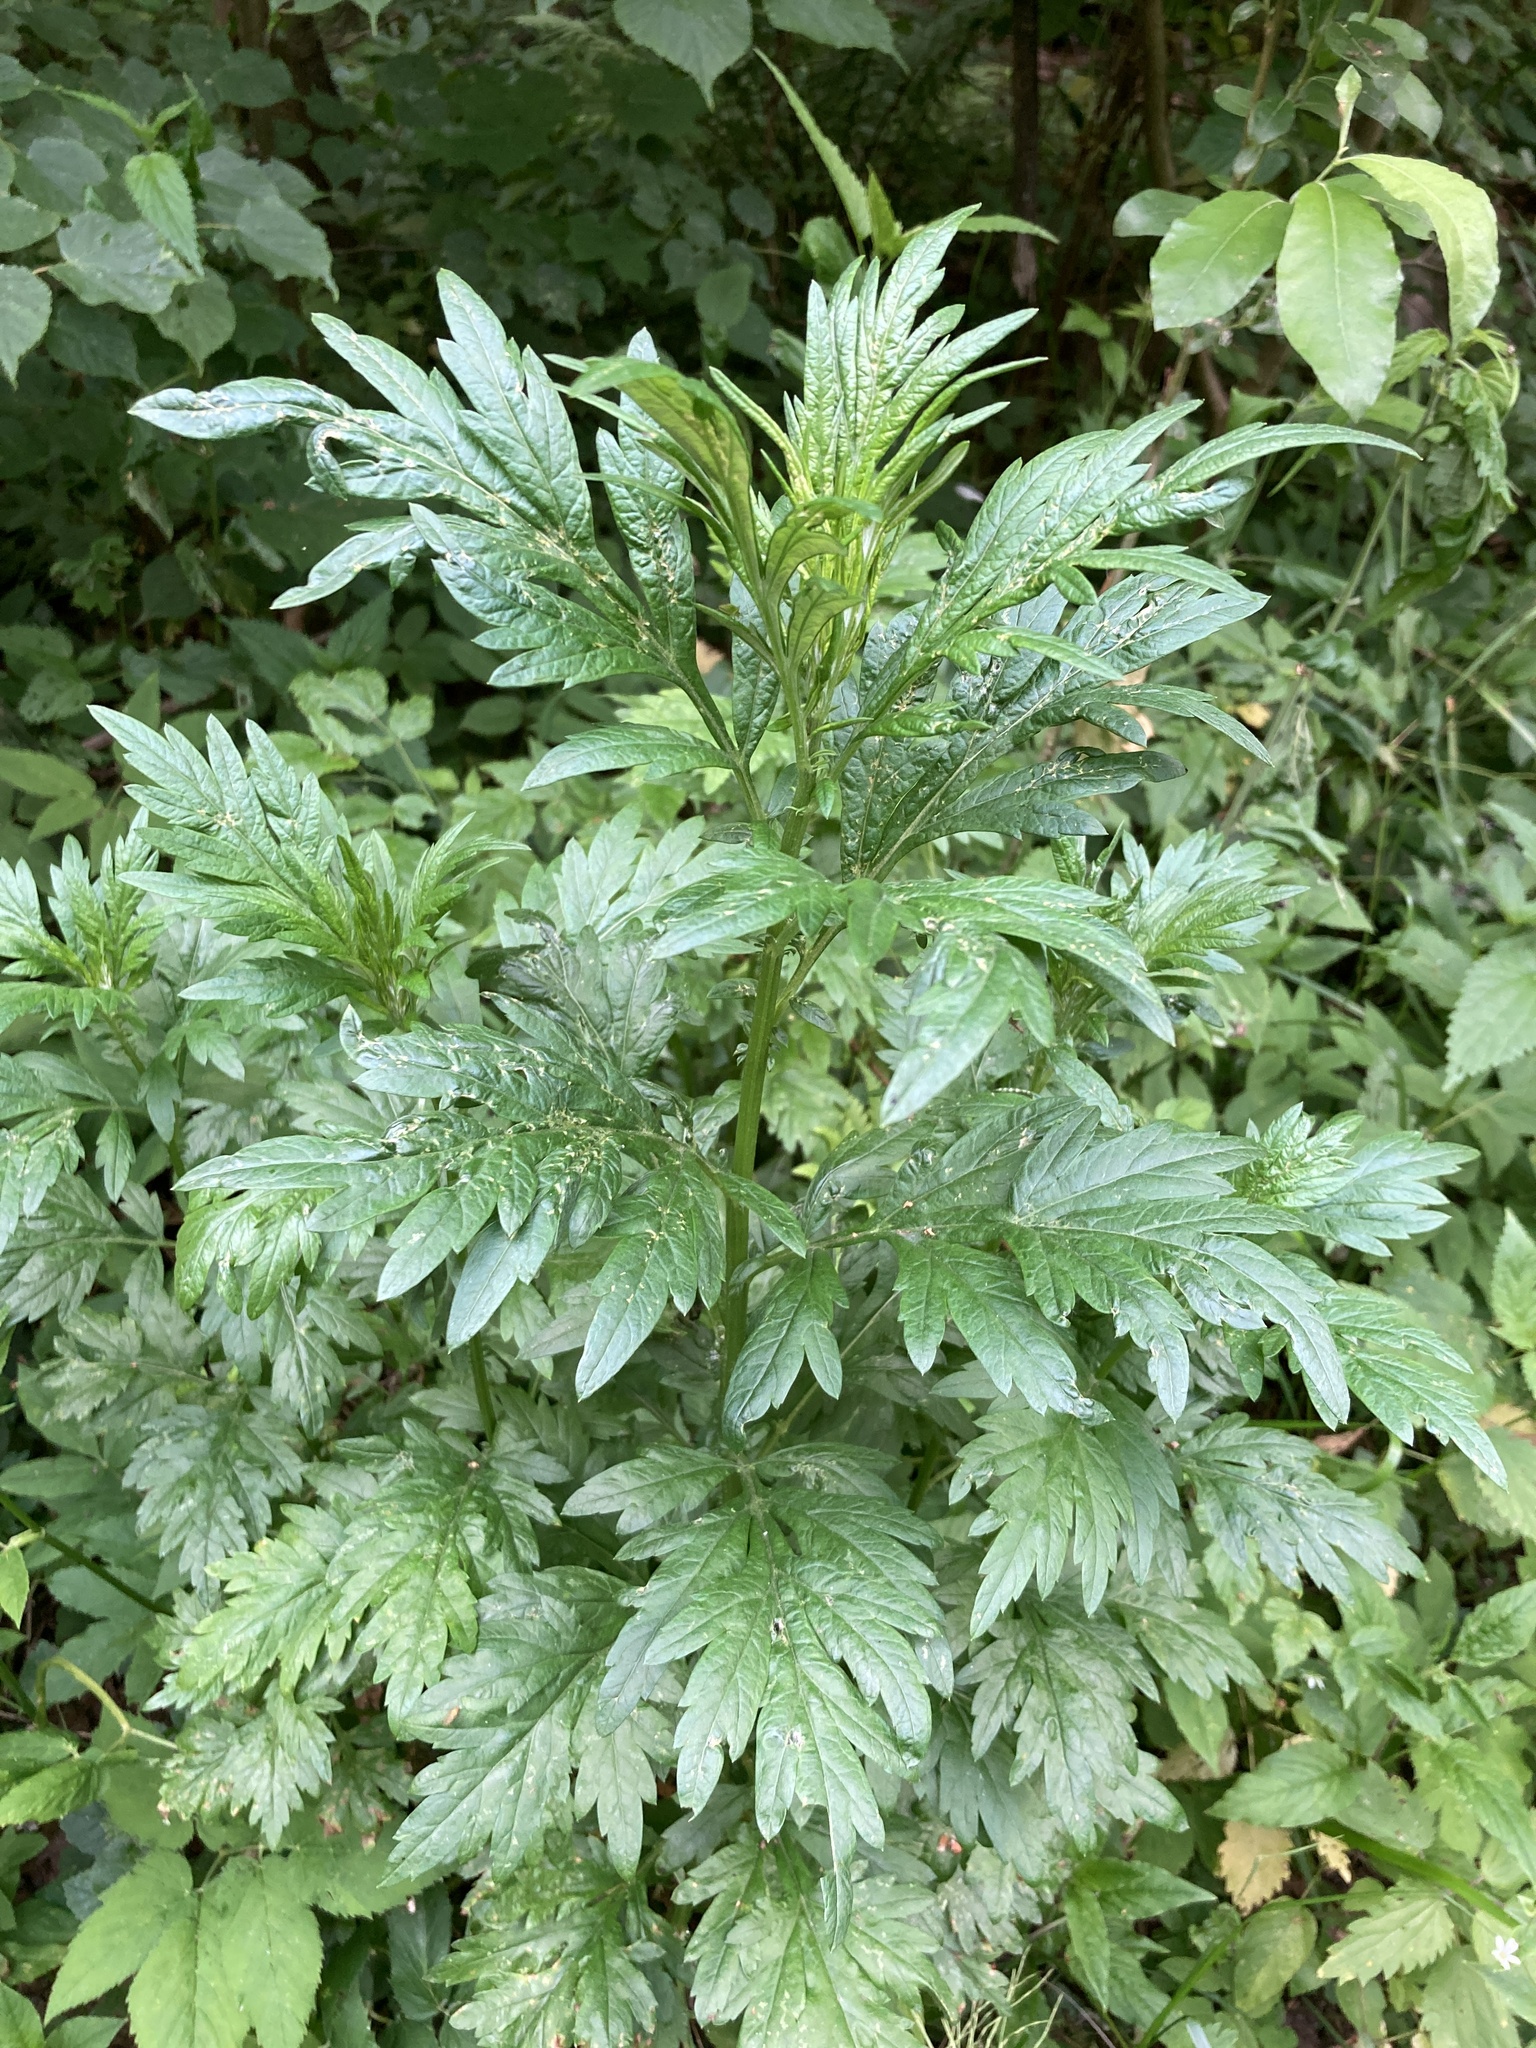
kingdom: Plantae
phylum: Tracheophyta
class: Magnoliopsida
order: Asterales
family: Asteraceae
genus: Artemisia
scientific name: Artemisia vulgaris
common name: Mugwort
